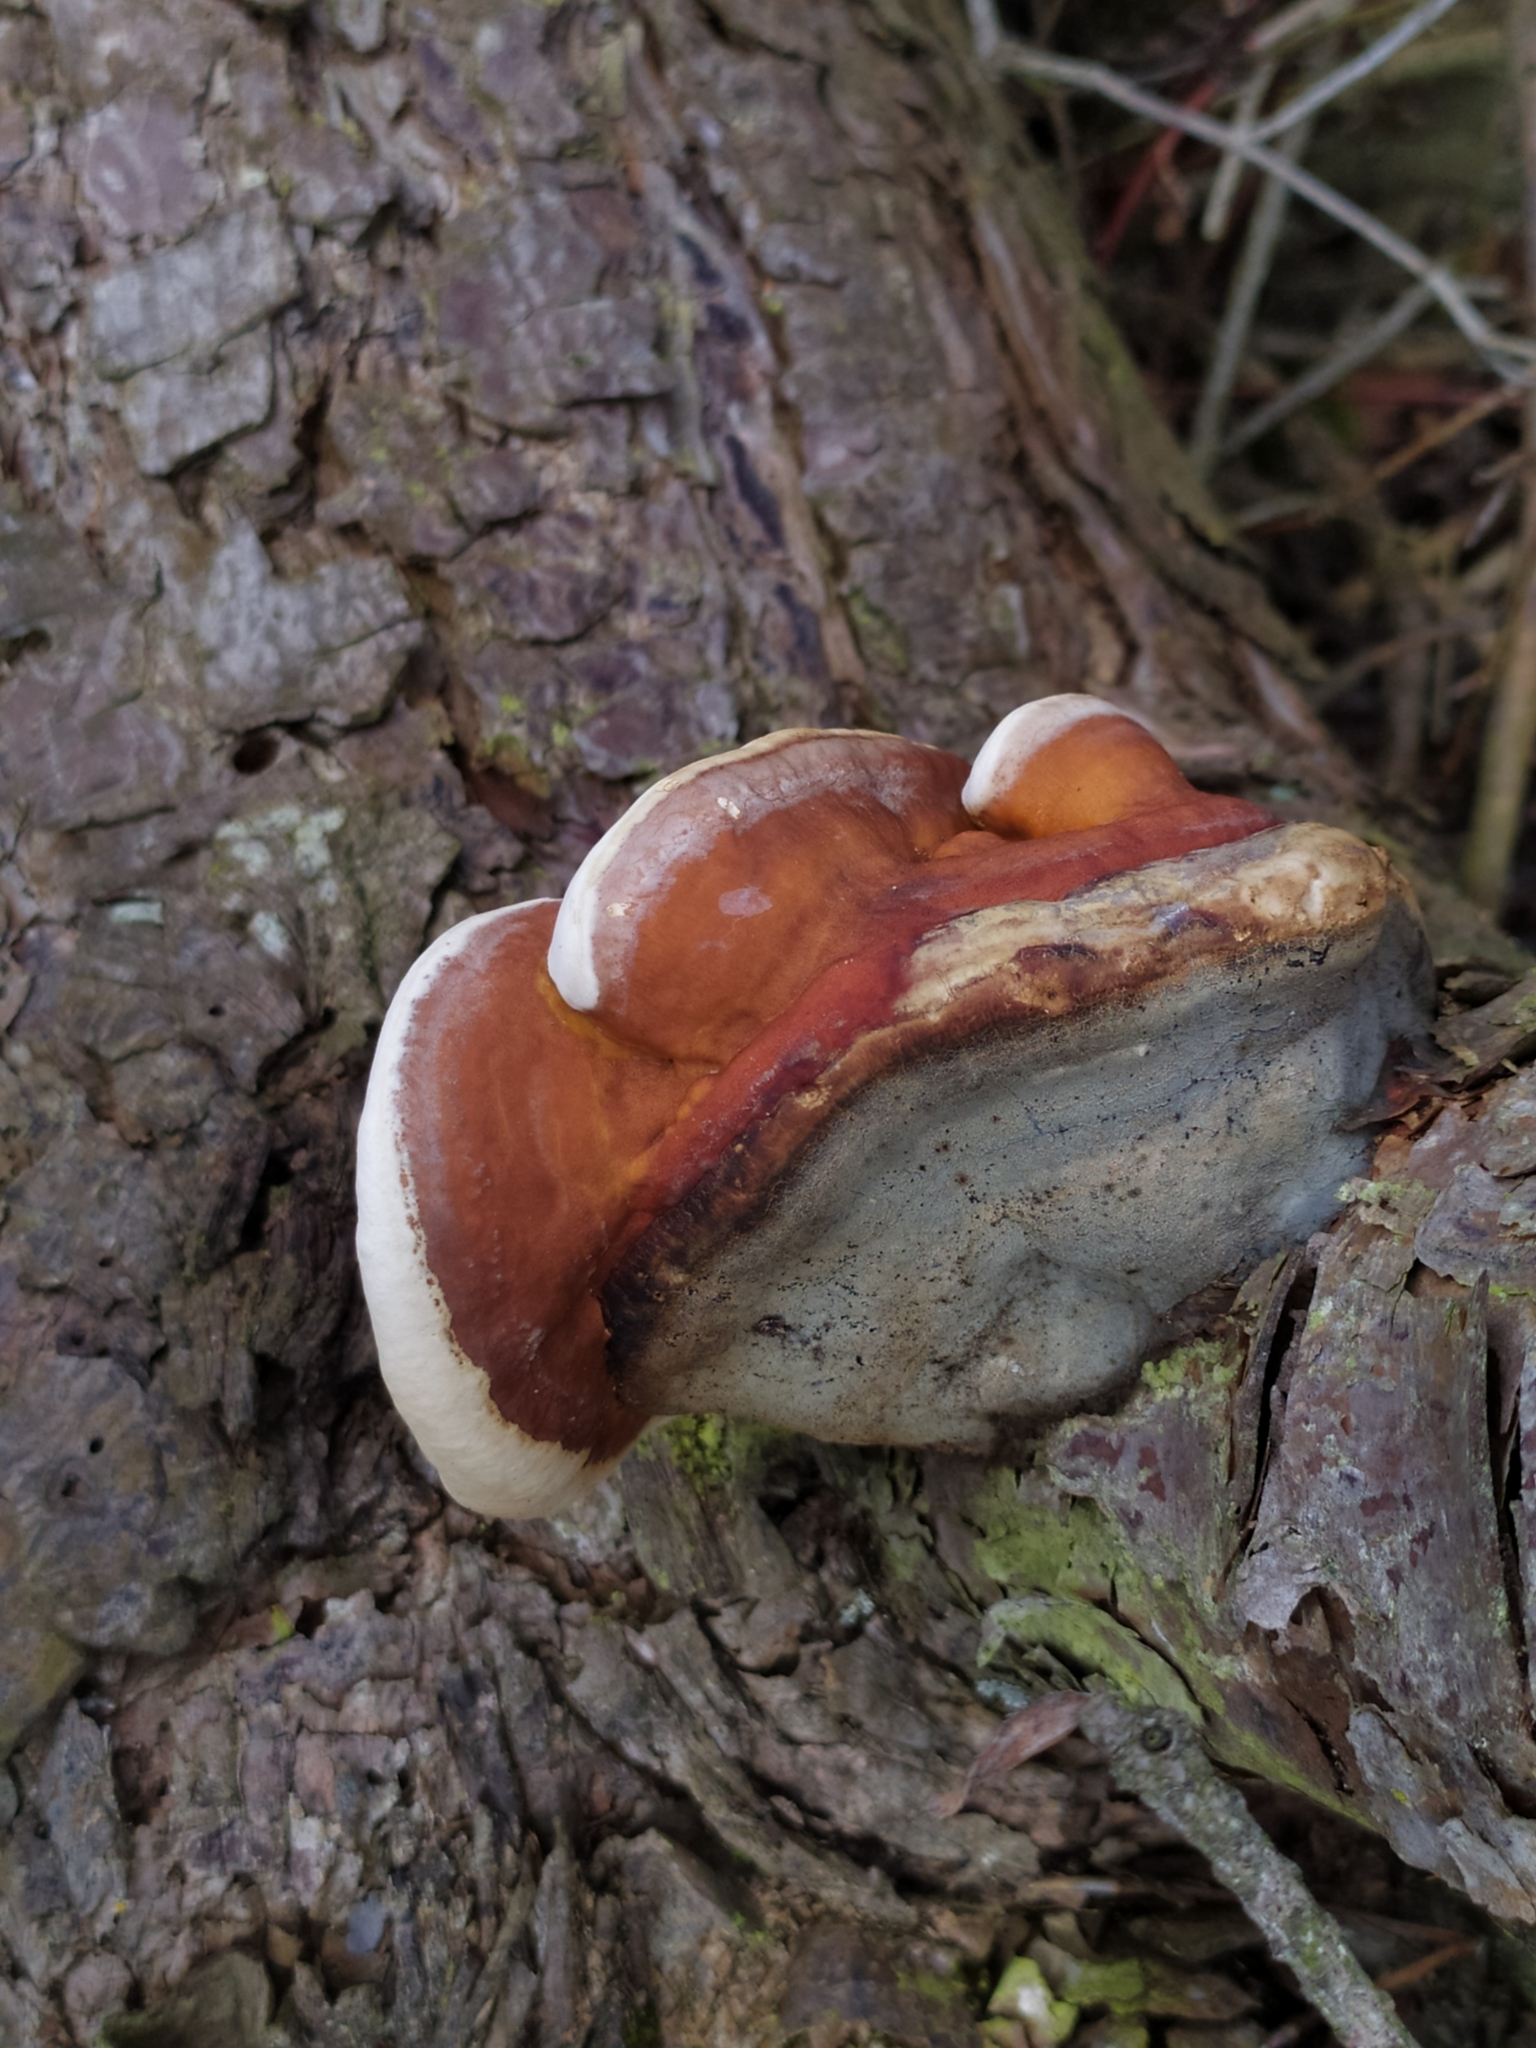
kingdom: Fungi
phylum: Basidiomycota
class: Agaricomycetes
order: Polyporales
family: Fomitopsidaceae
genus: Fomitopsis
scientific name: Fomitopsis pinicola
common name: Red-belted bracket
